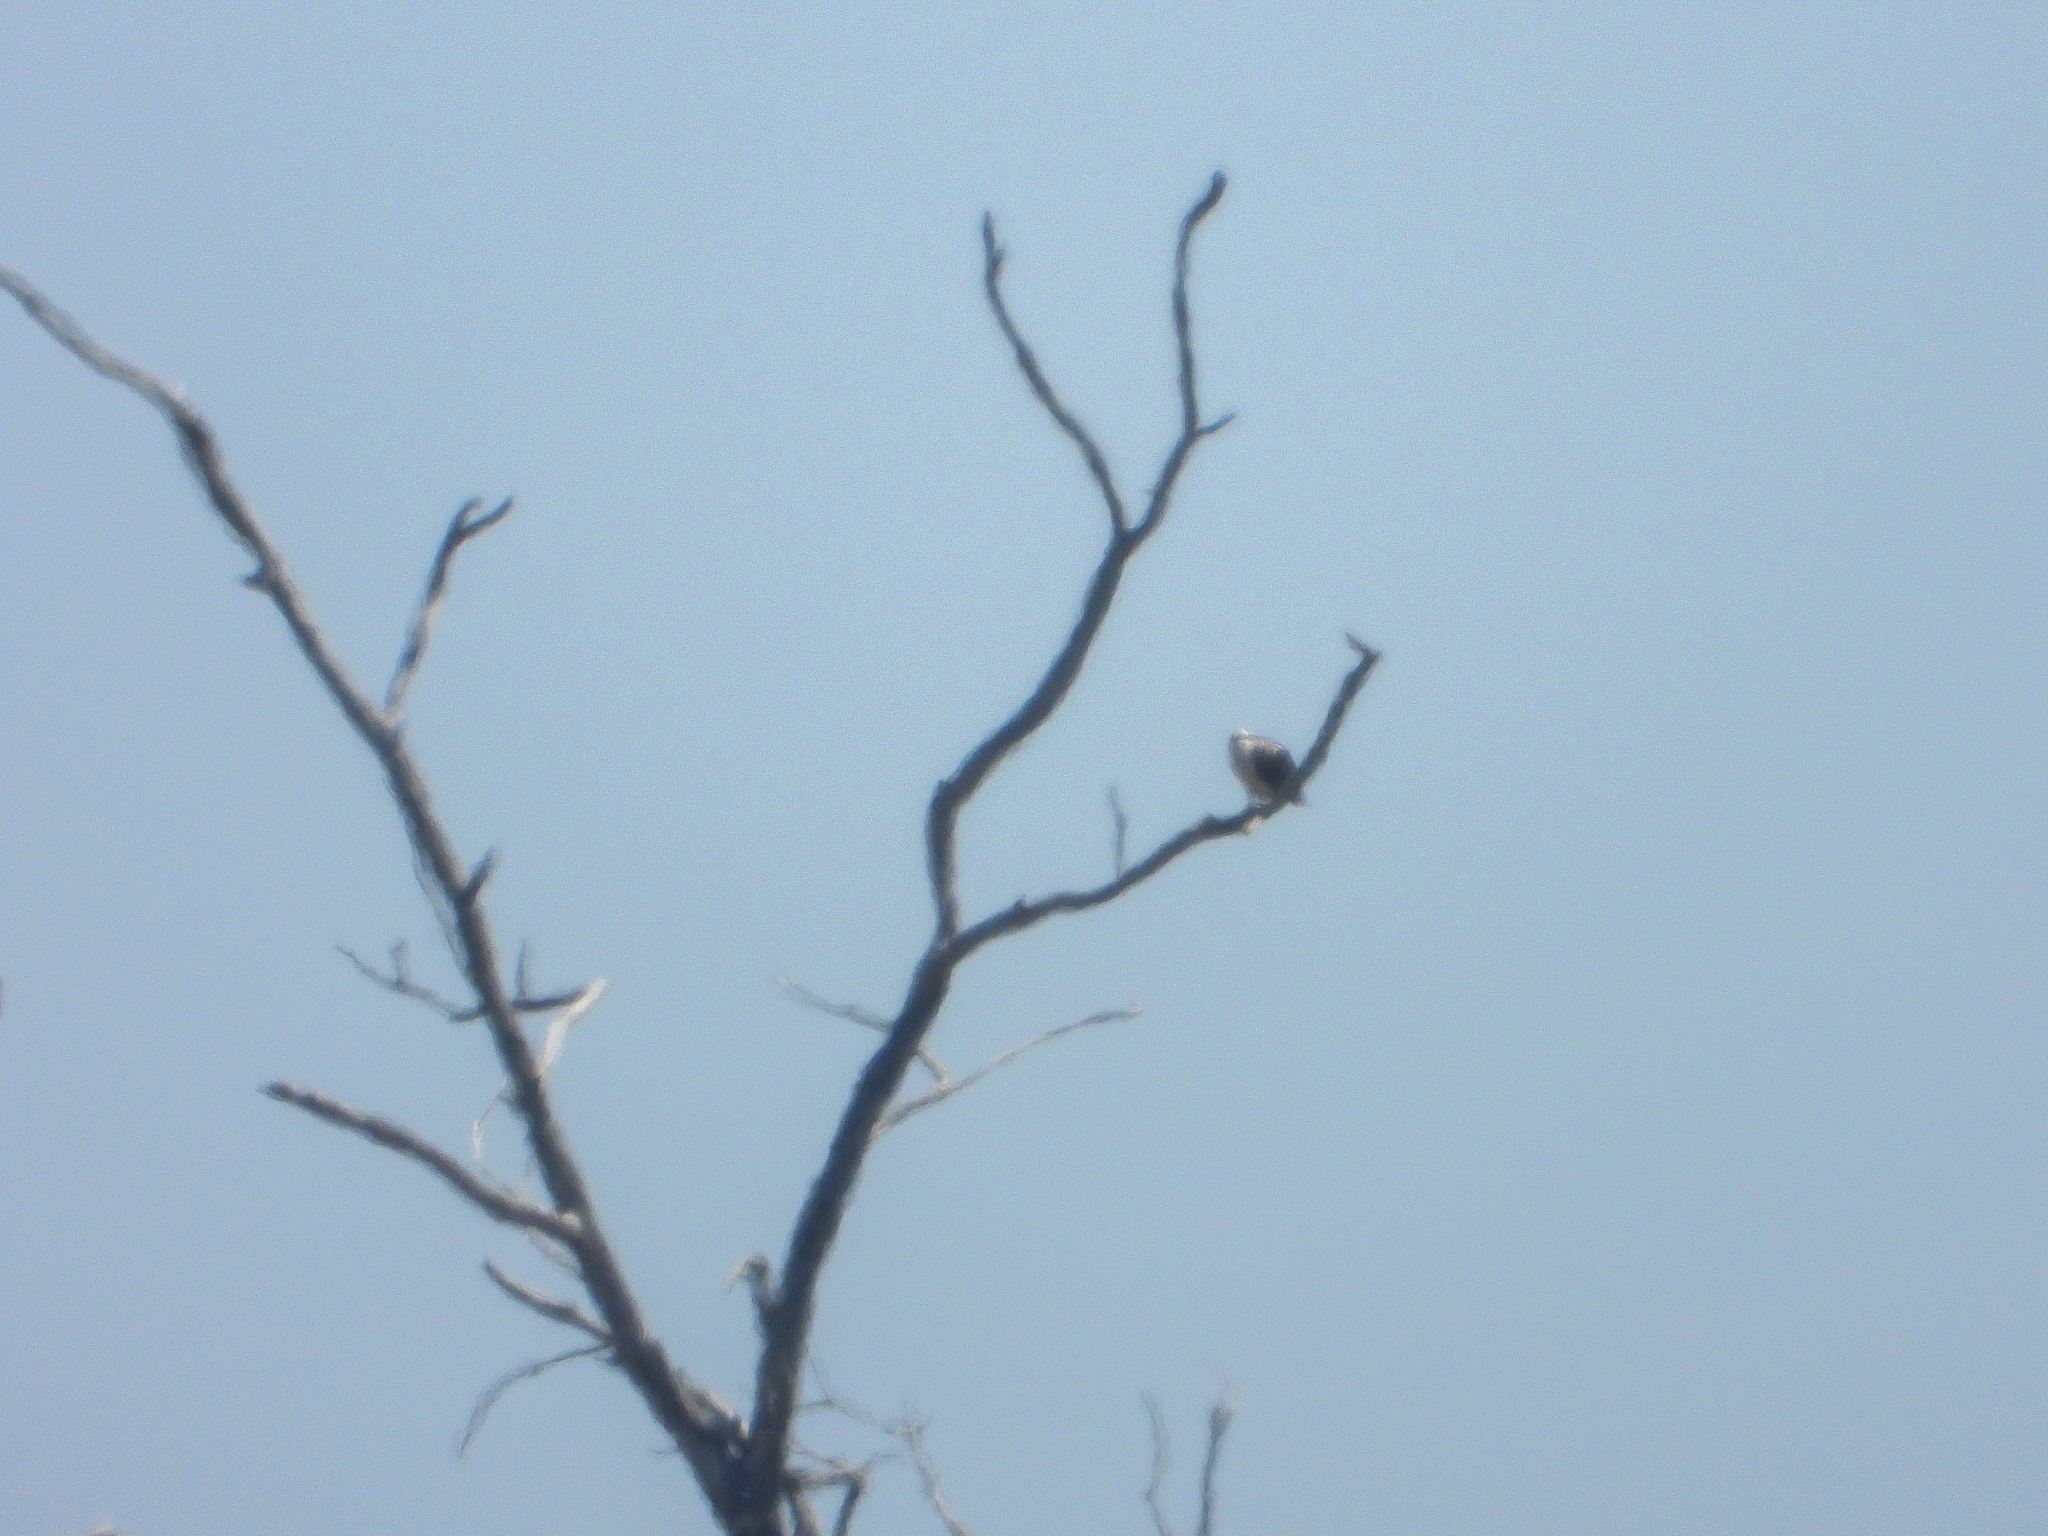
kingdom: Animalia
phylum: Chordata
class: Aves
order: Accipitriformes
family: Pandionidae
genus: Pandion
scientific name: Pandion haliaetus
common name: Osprey
